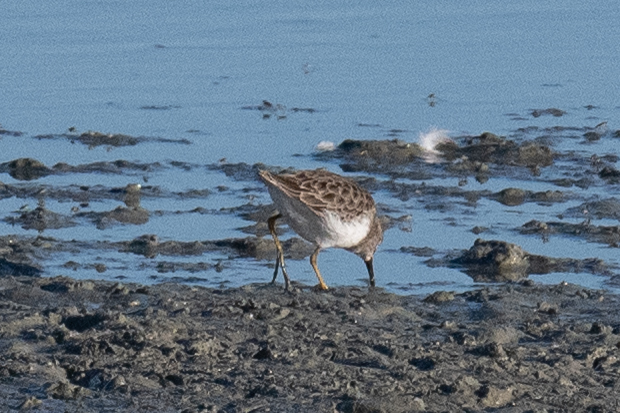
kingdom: Animalia
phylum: Chordata
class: Aves
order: Charadriiformes
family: Scolopacidae
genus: Calidris
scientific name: Calidris minutilla
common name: Least sandpiper
